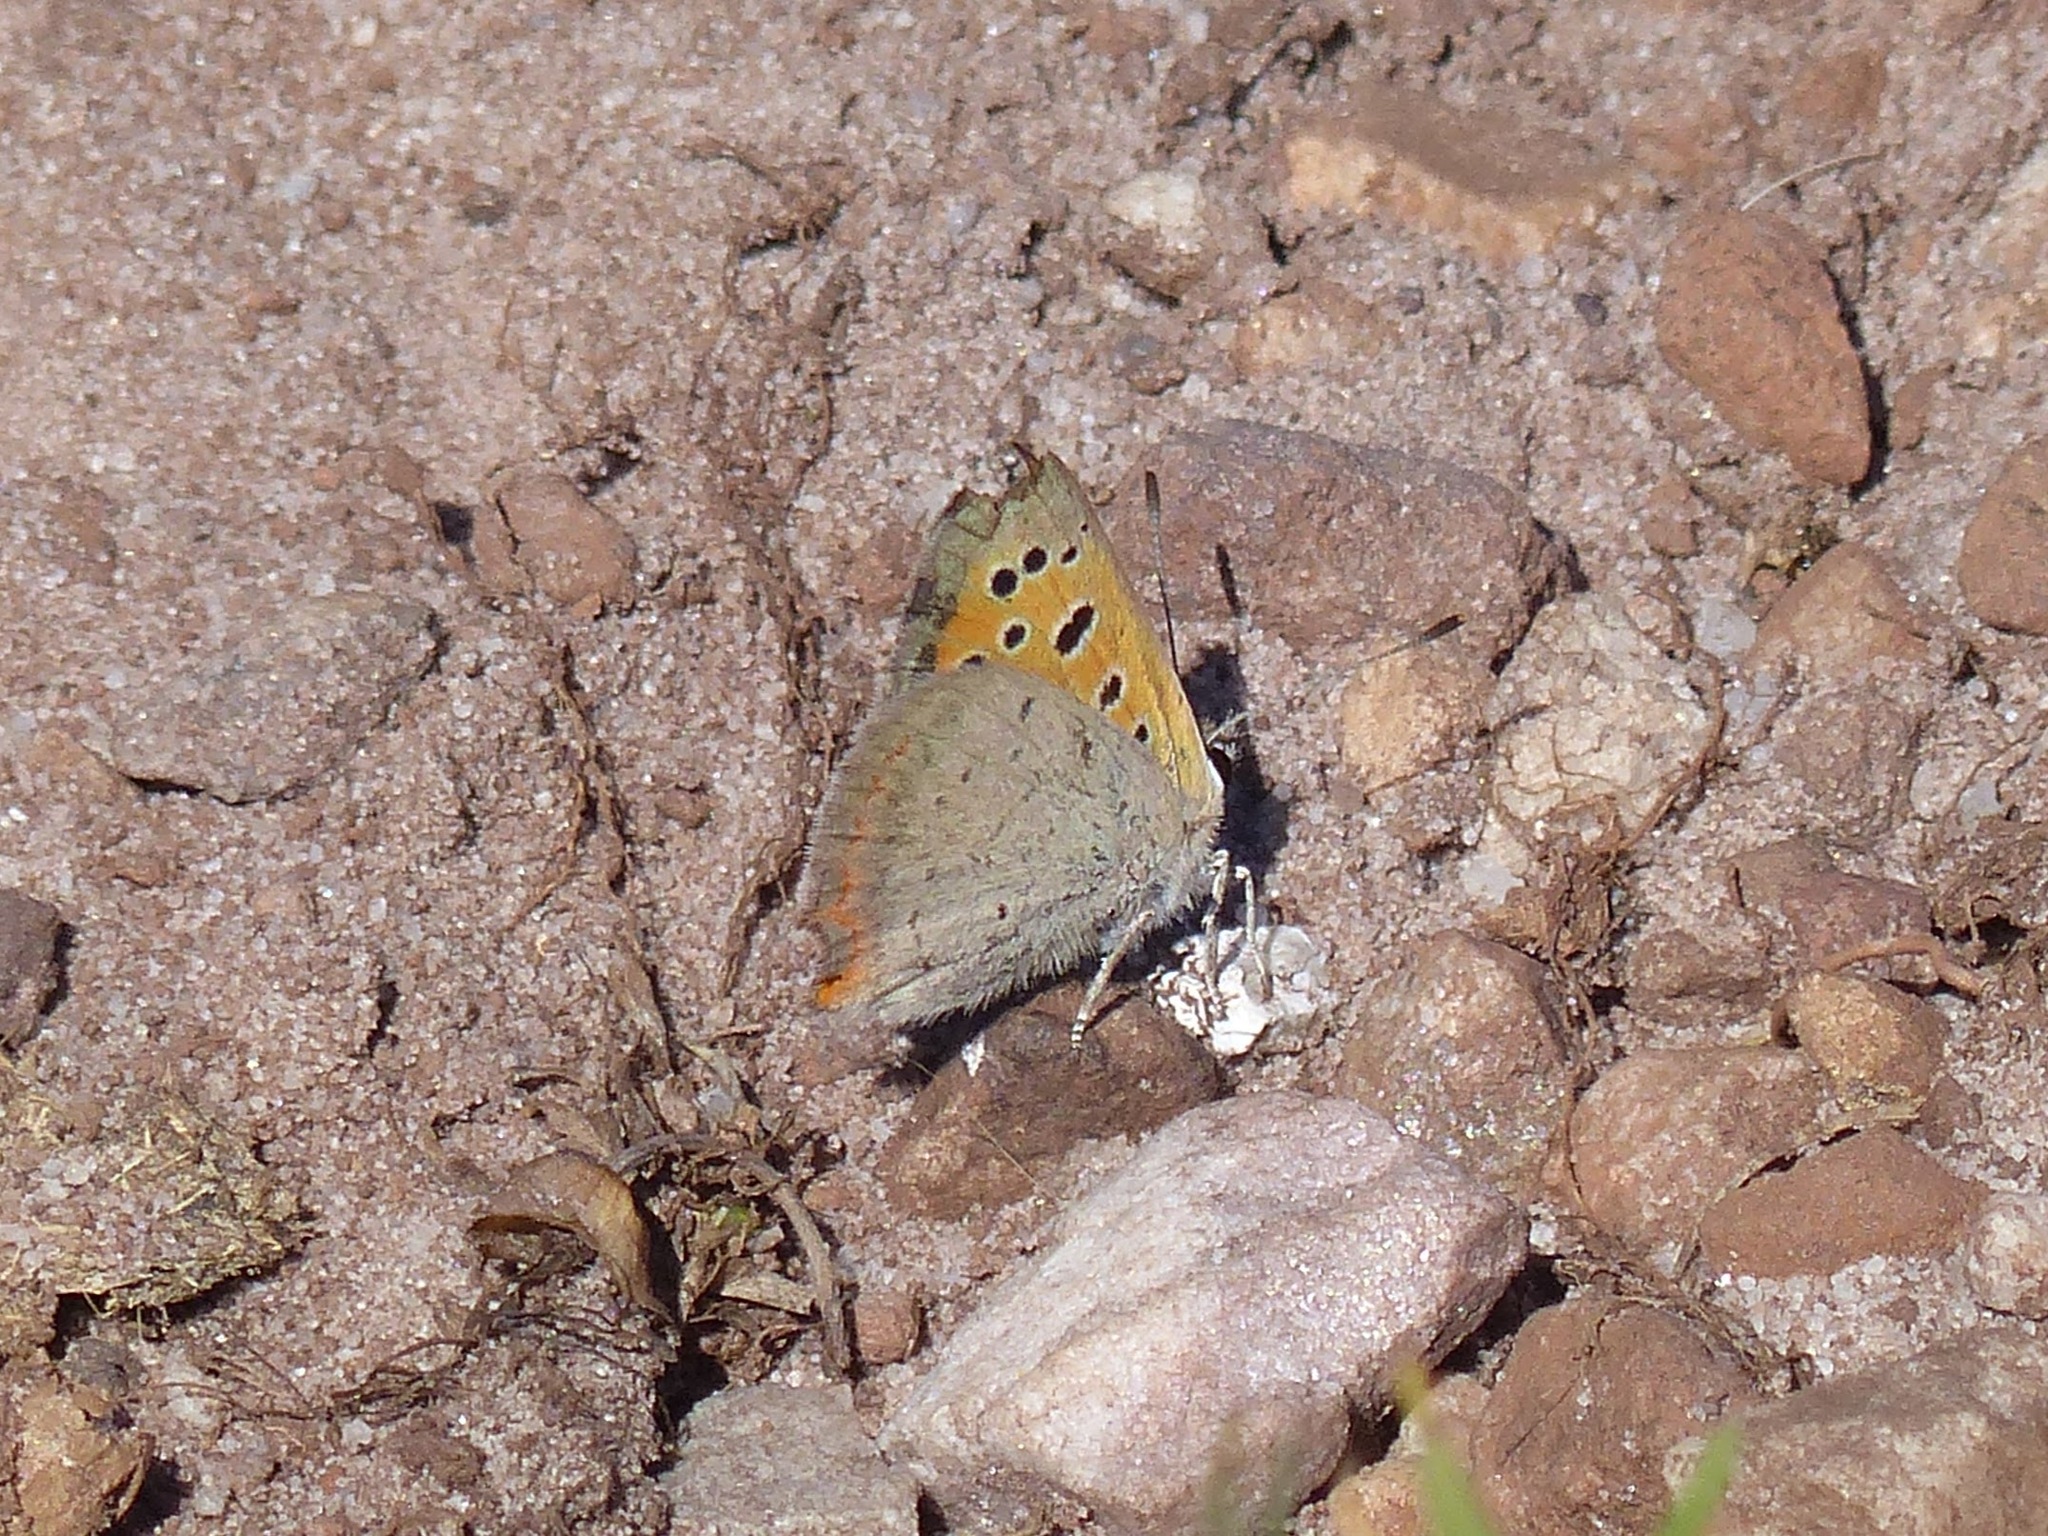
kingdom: Animalia
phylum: Arthropoda
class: Insecta
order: Lepidoptera
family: Lycaenidae
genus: Lycaena
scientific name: Lycaena phlaeas
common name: Small copper
